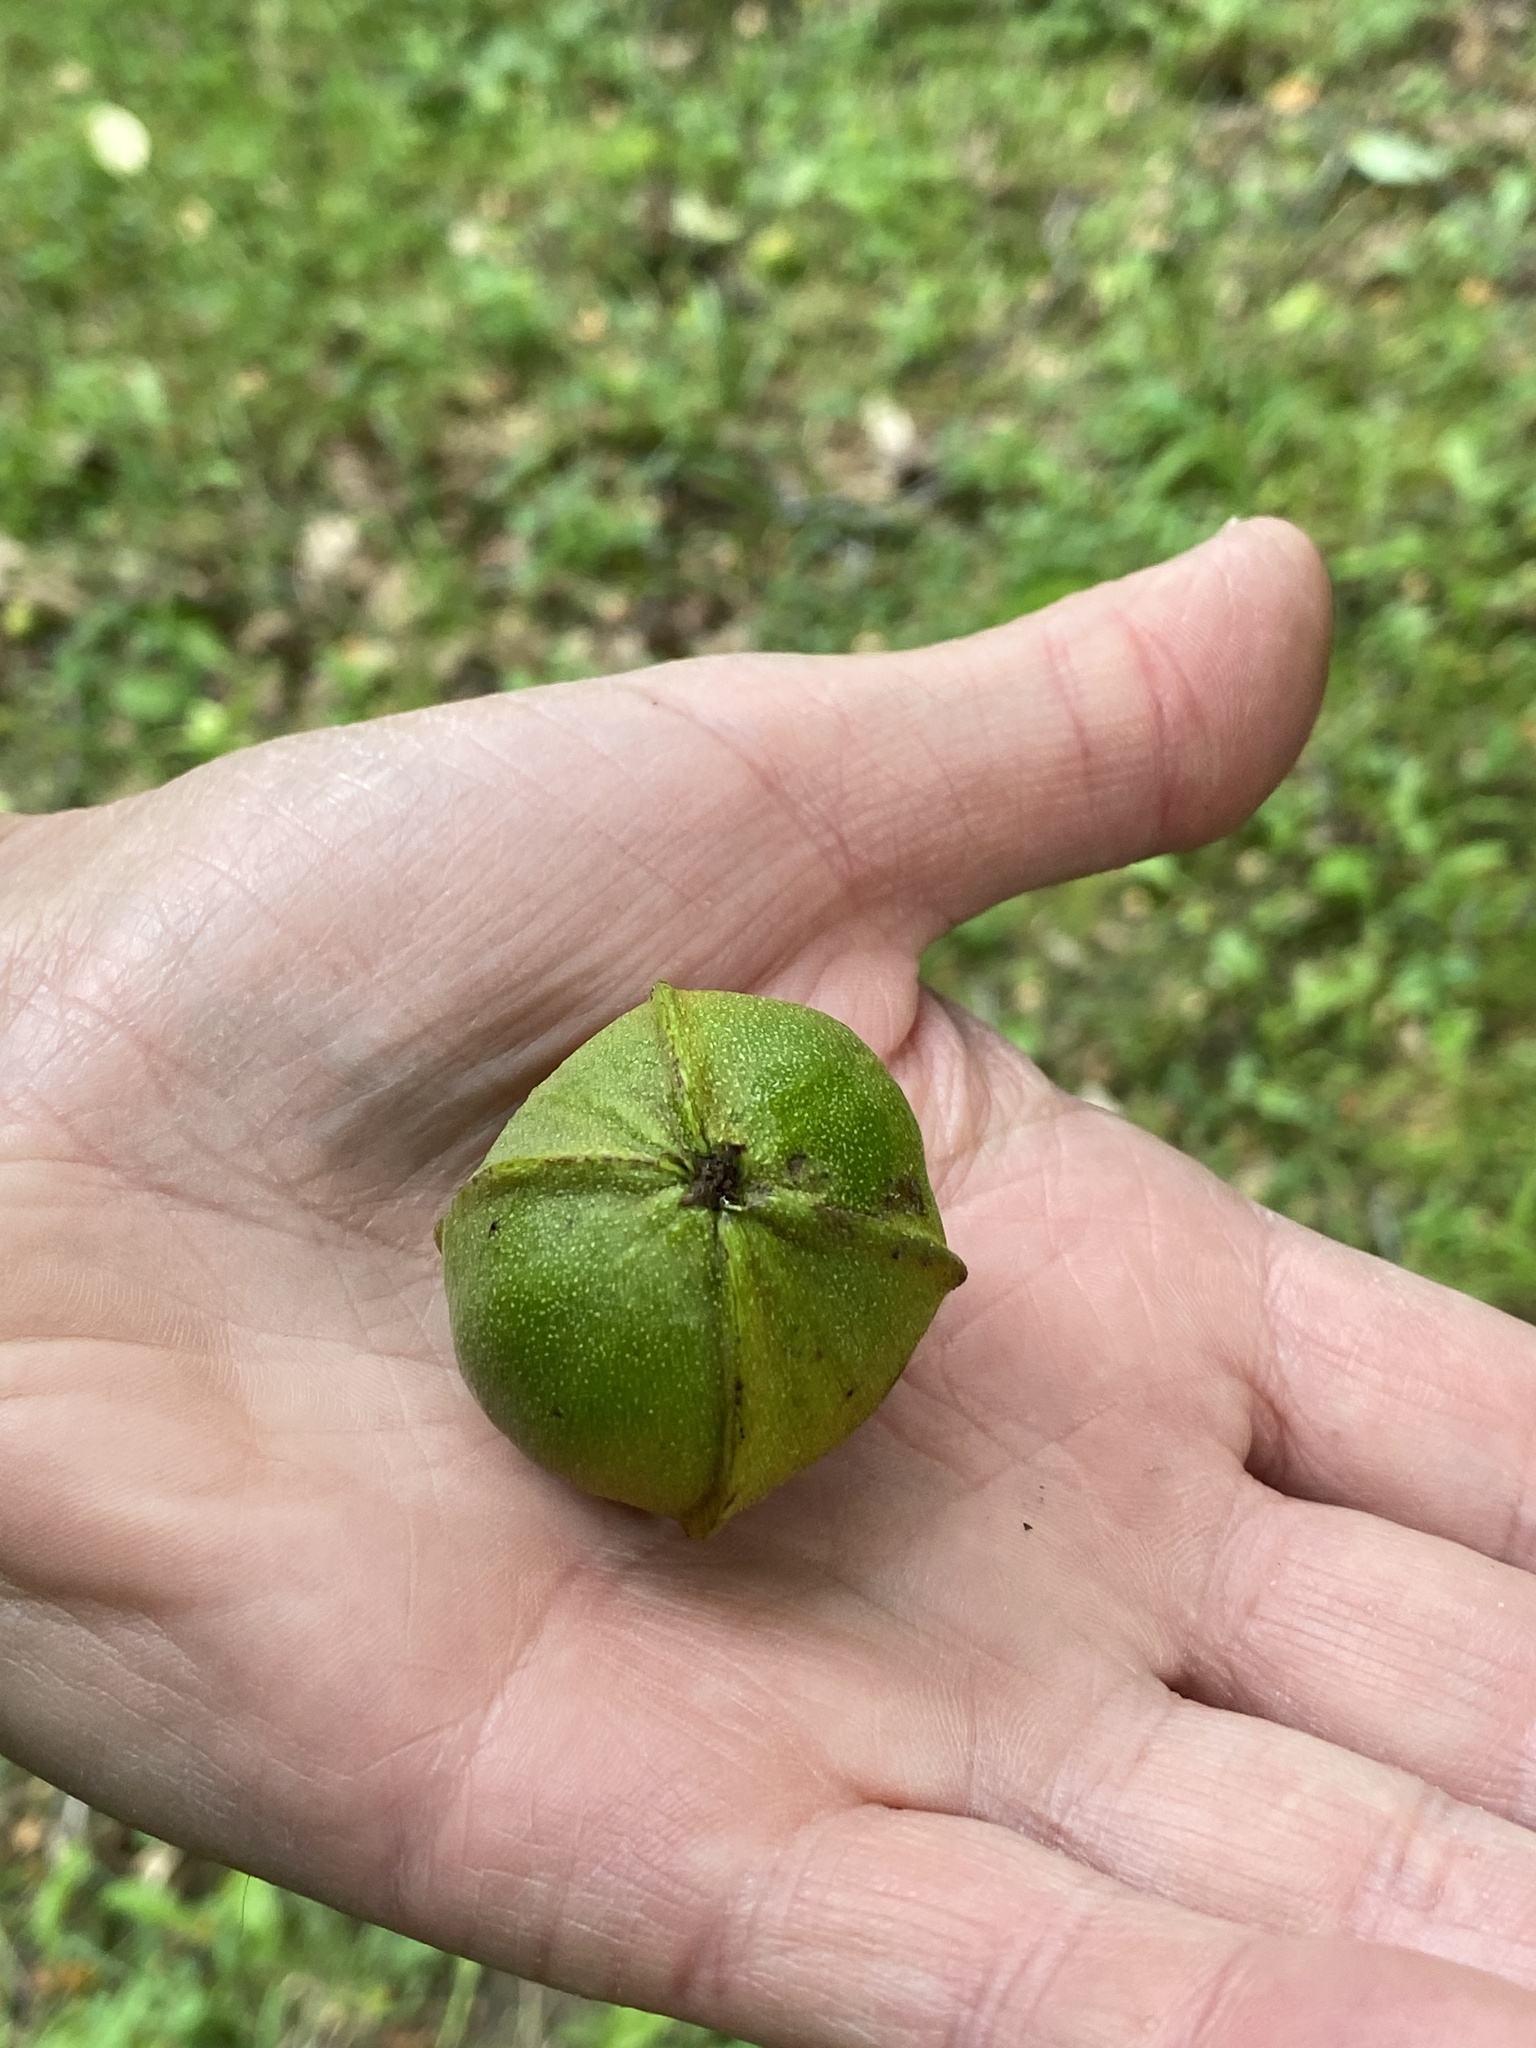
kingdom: Plantae
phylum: Tracheophyta
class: Magnoliopsida
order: Fagales
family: Juglandaceae
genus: Carya
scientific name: Carya cordiformis
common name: Bitternut hickory
